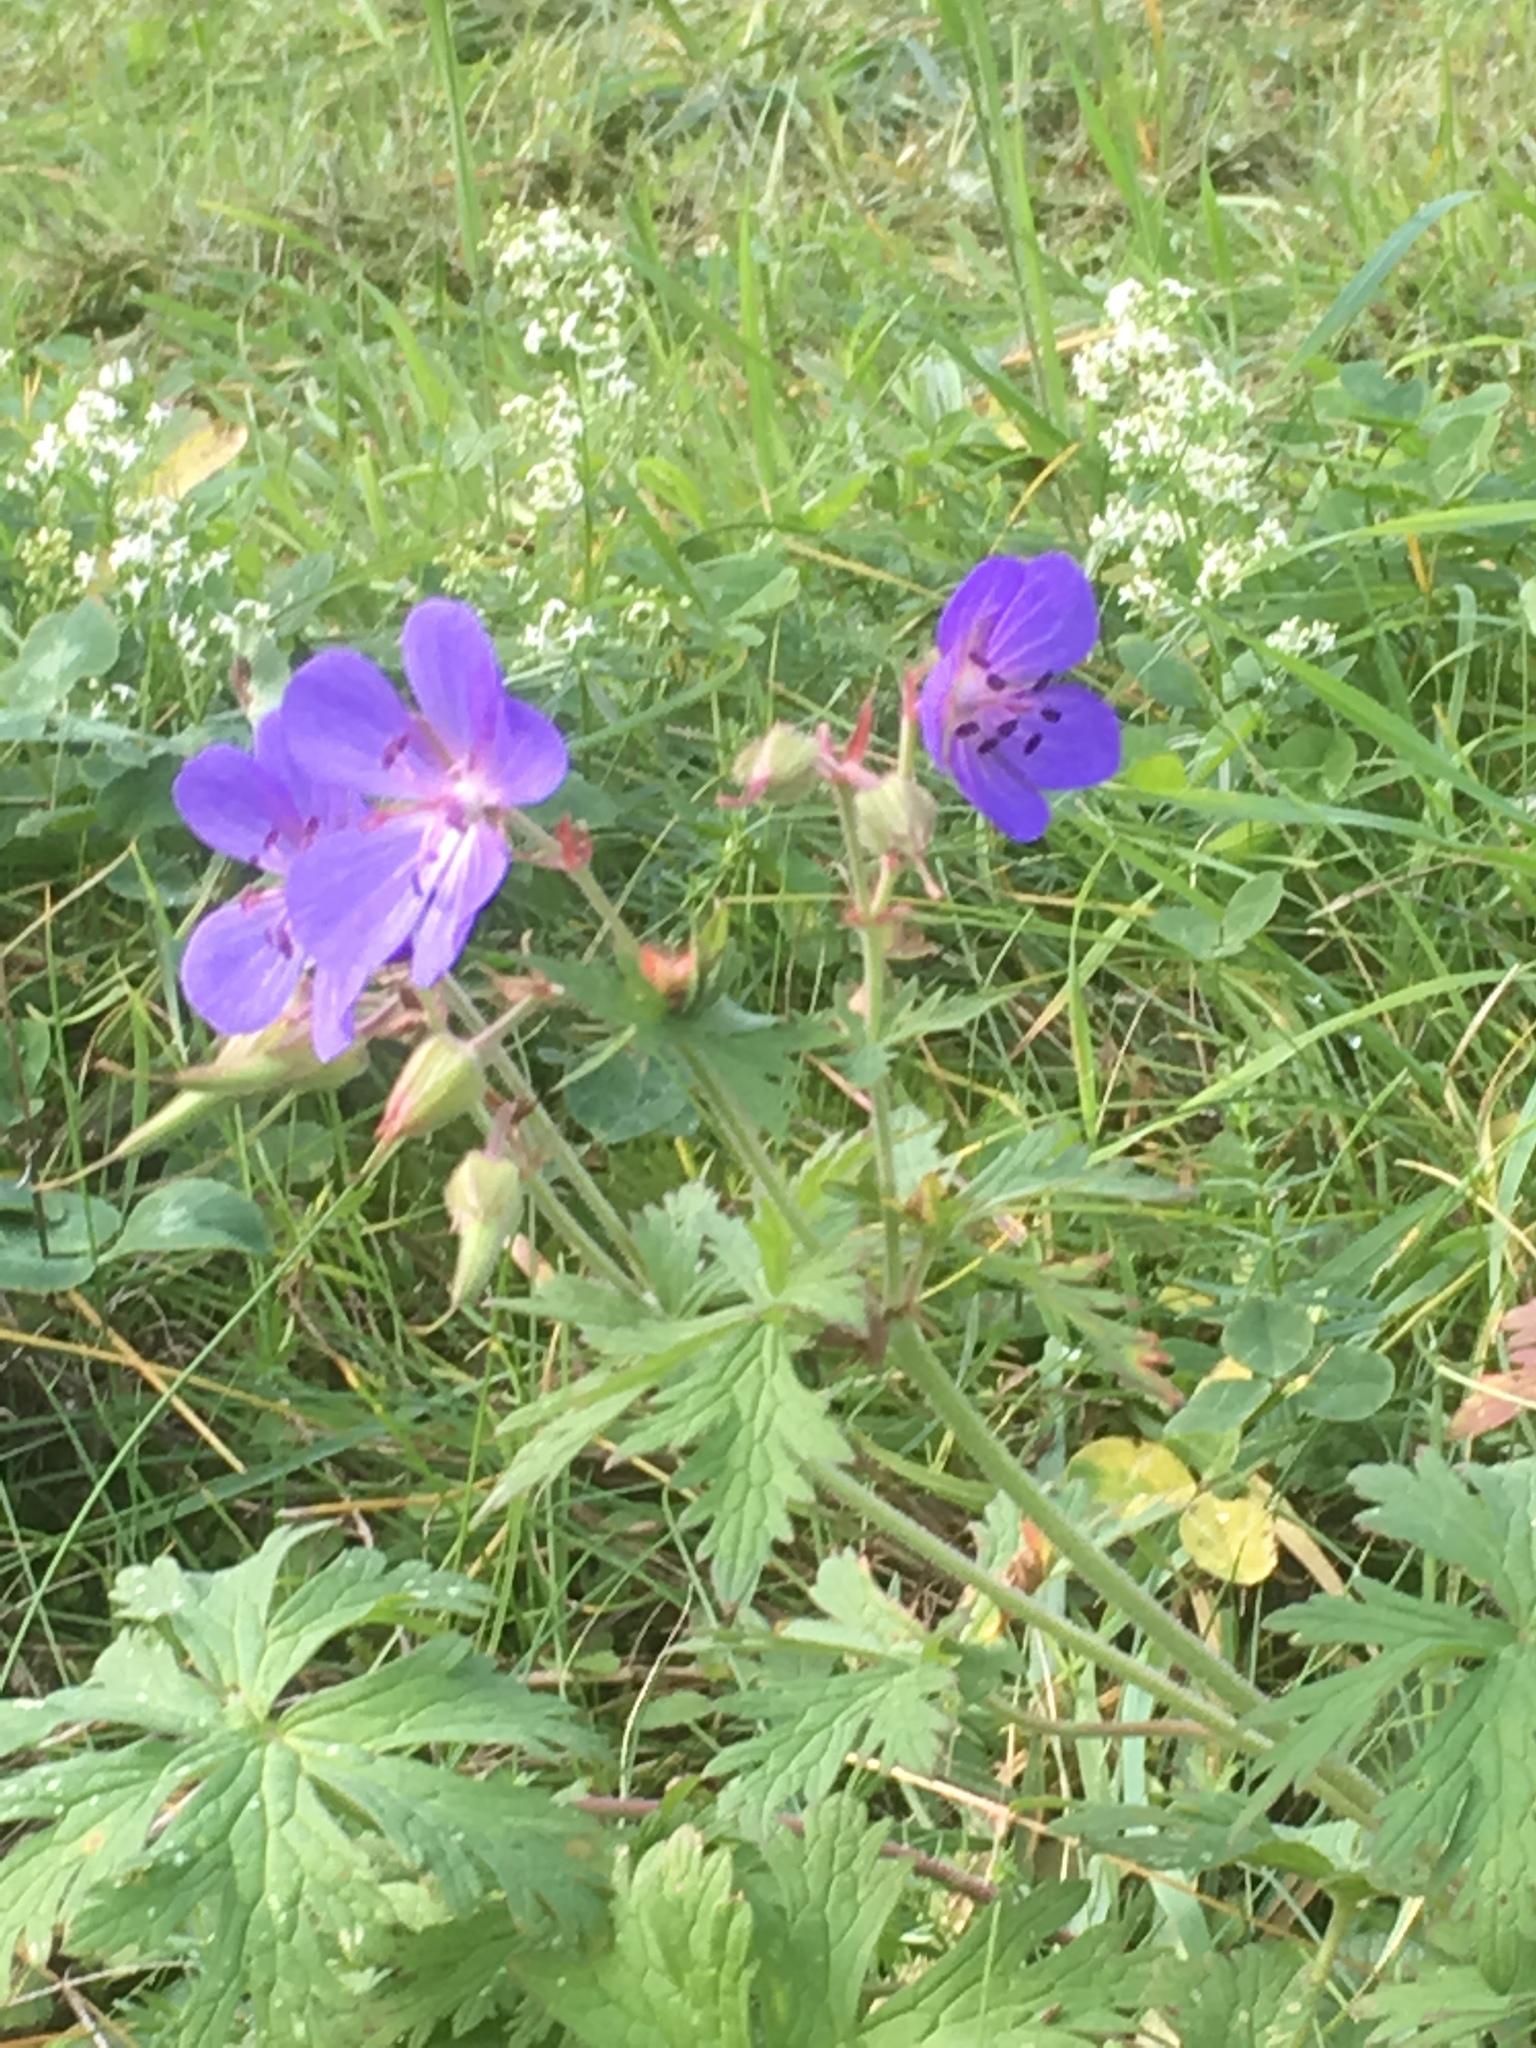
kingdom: Plantae
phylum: Tracheophyta
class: Magnoliopsida
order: Geraniales
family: Geraniaceae
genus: Geranium
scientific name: Geranium pratense
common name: Meadow crane's-bill
